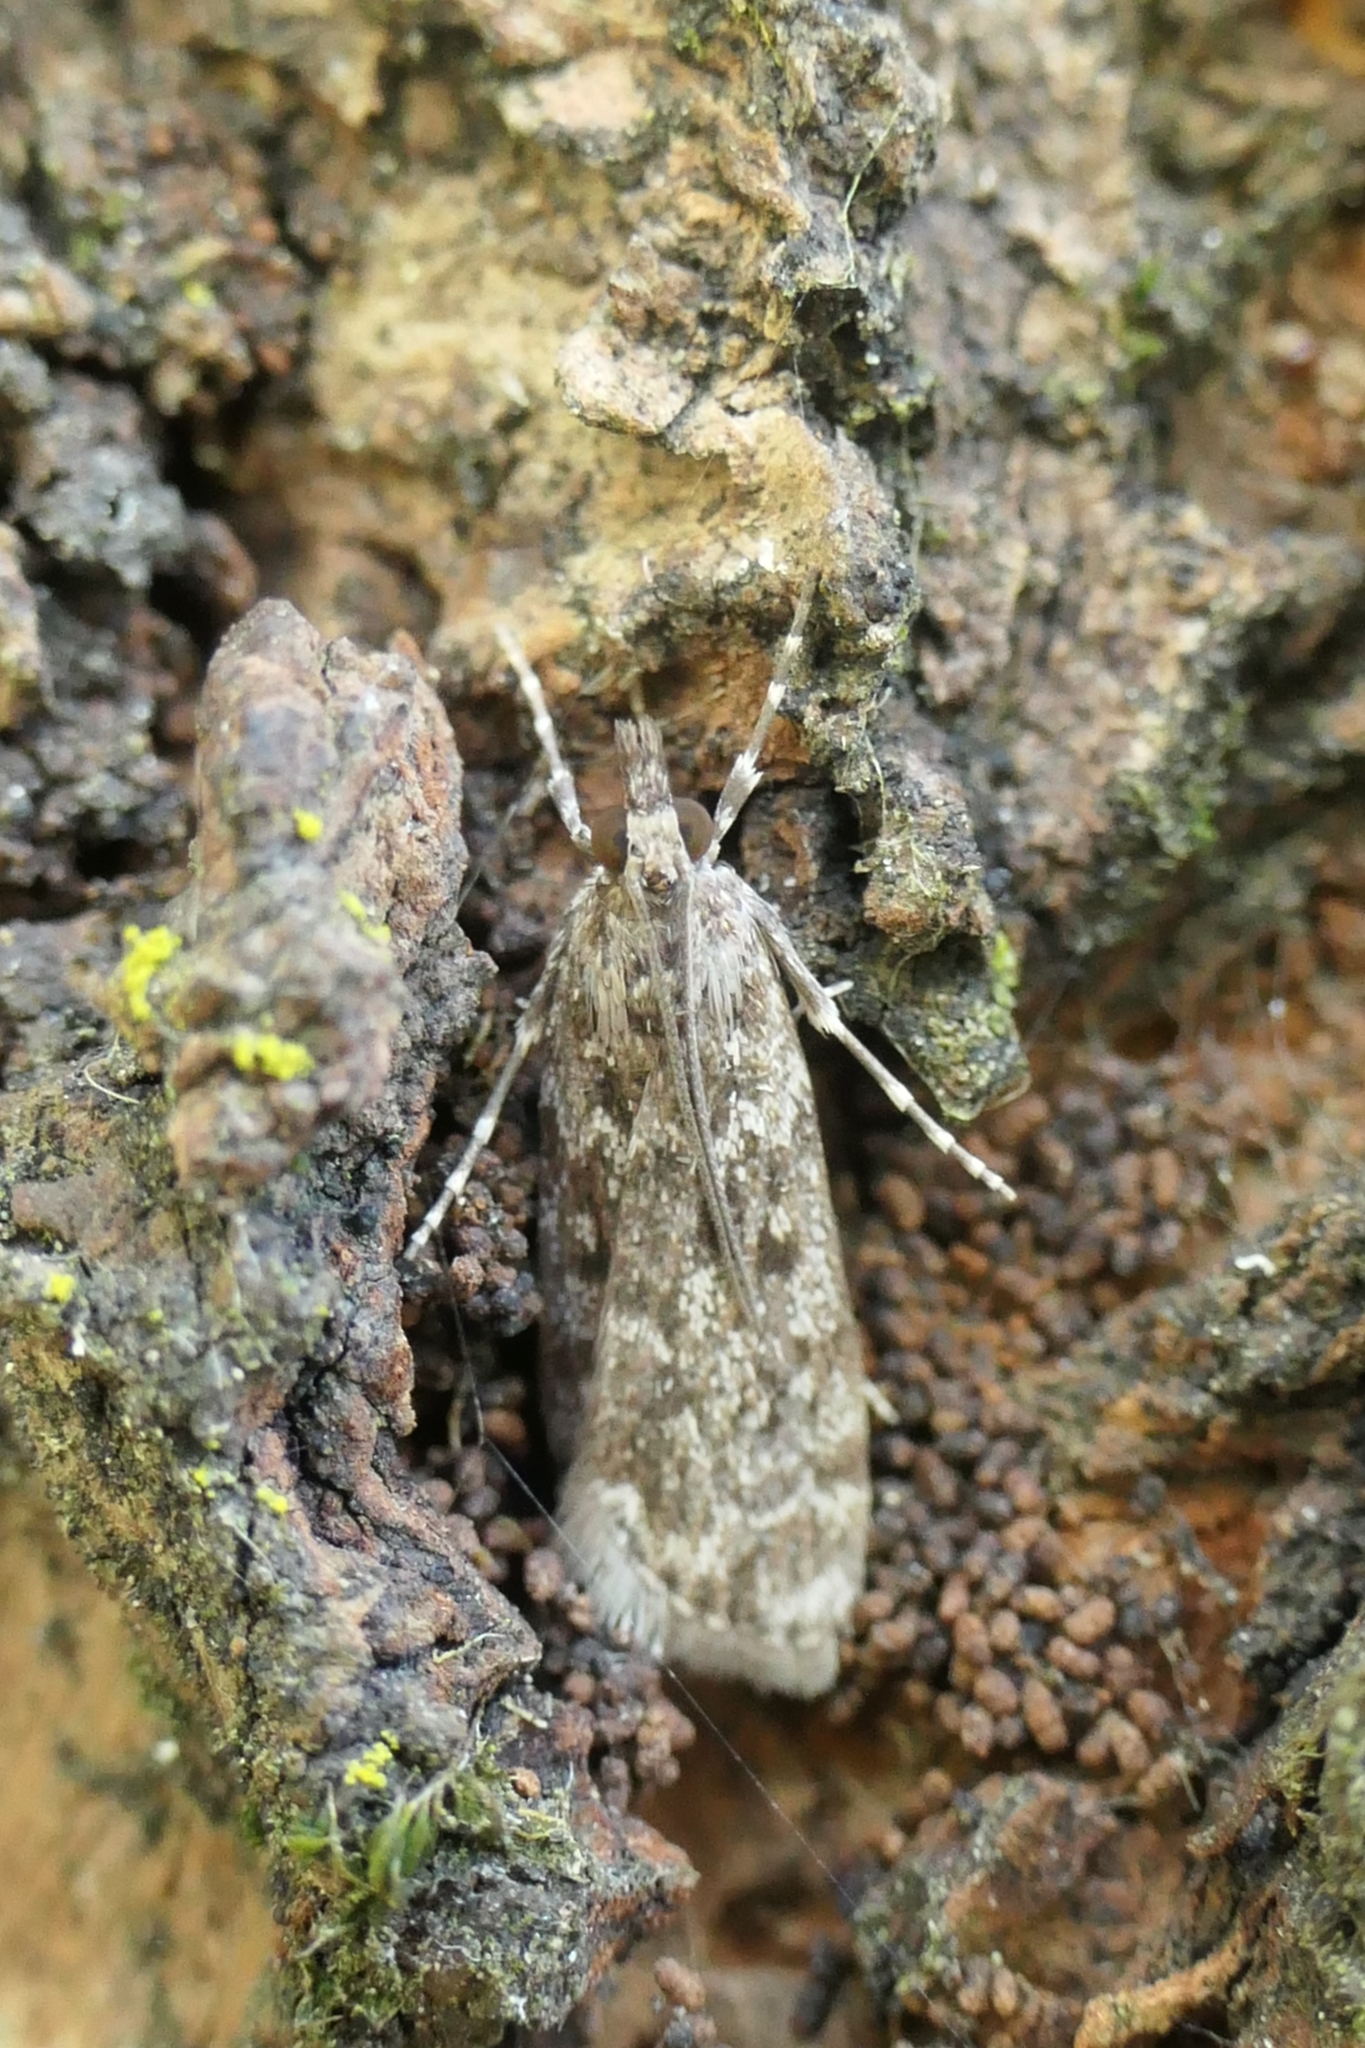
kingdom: Animalia
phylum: Arthropoda
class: Insecta
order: Lepidoptera
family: Crambidae
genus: Eudonia
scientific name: Eudonia philerga
